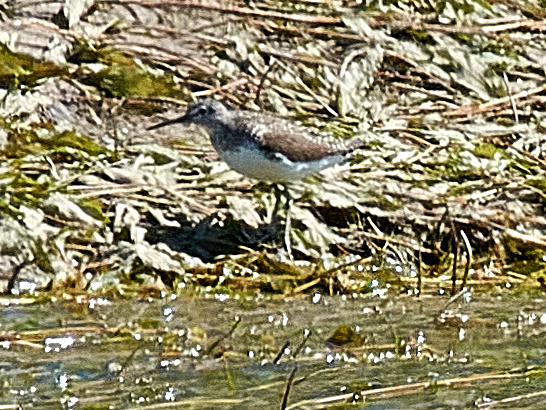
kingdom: Animalia
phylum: Chordata
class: Aves
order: Charadriiformes
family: Scolopacidae
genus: Tringa
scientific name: Tringa ochropus
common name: Green sandpiper
